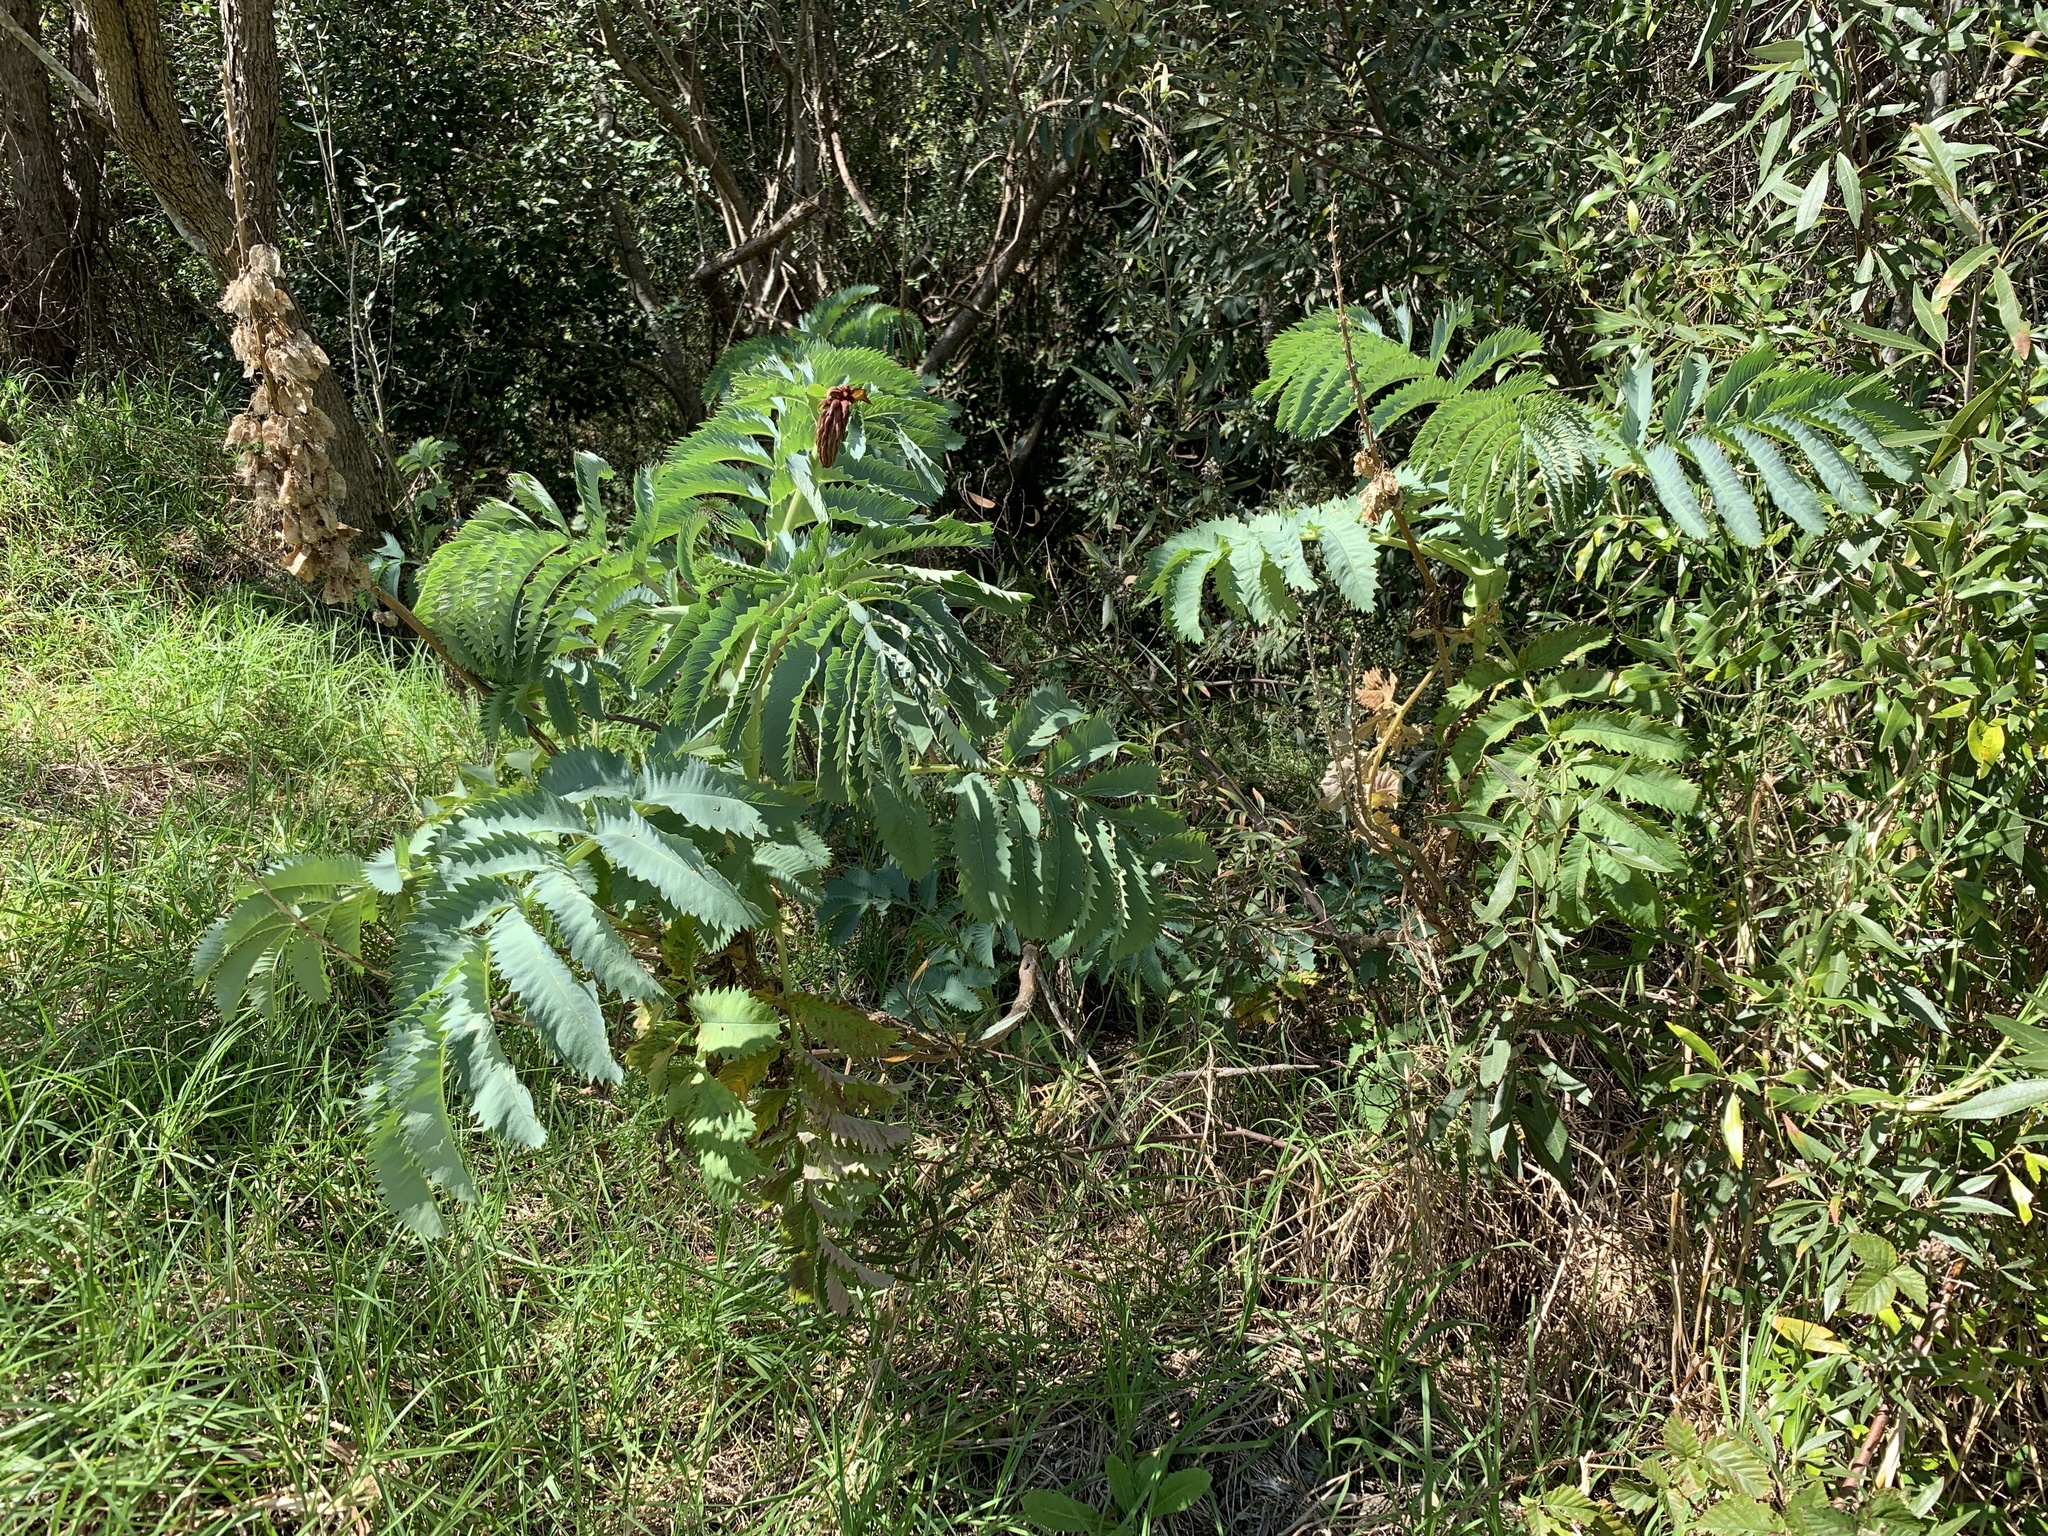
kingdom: Plantae
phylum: Tracheophyta
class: Magnoliopsida
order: Geraniales
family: Melianthaceae
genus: Melianthus
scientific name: Melianthus major
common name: Honey-flower
